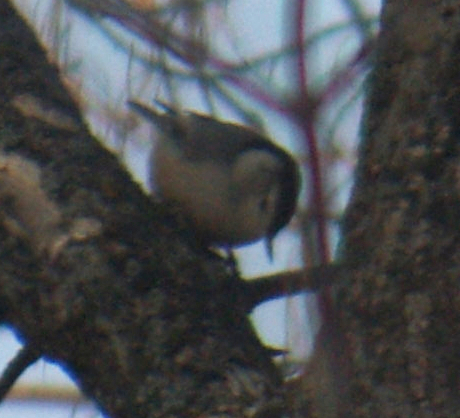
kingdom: Animalia
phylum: Chordata
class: Aves
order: Passeriformes
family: Sittidae
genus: Sitta
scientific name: Sitta carolinensis
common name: White-breasted nuthatch
